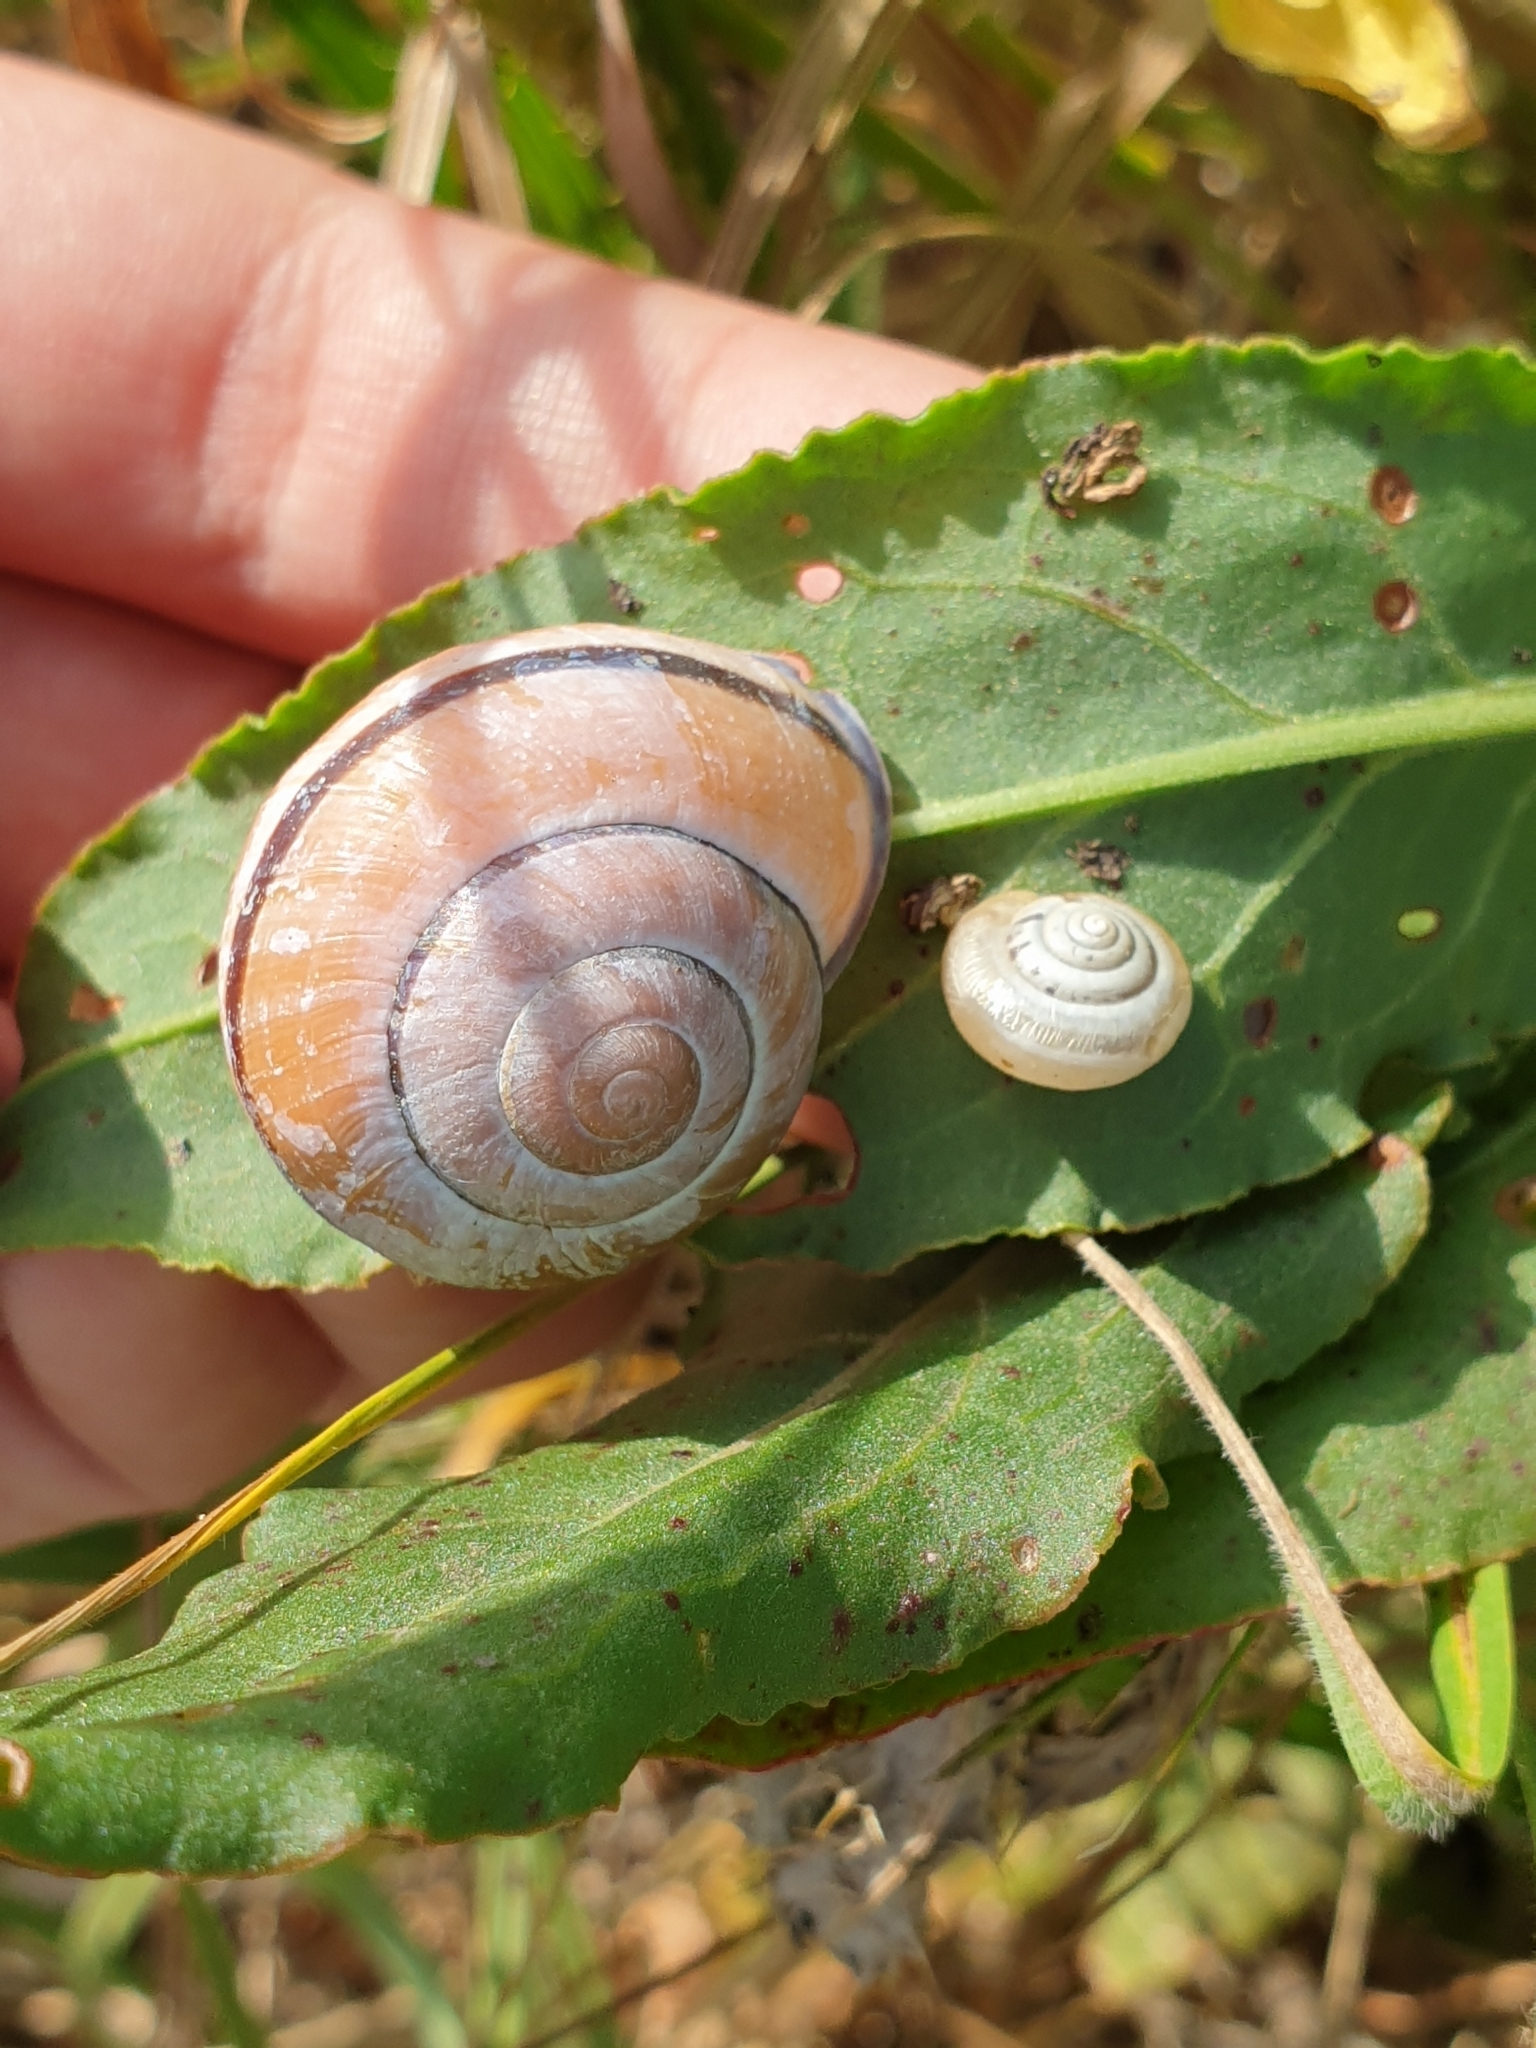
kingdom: Animalia
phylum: Mollusca
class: Gastropoda
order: Stylommatophora
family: Helicidae
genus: Cepaea
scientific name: Cepaea nemoralis
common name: Grovesnail
